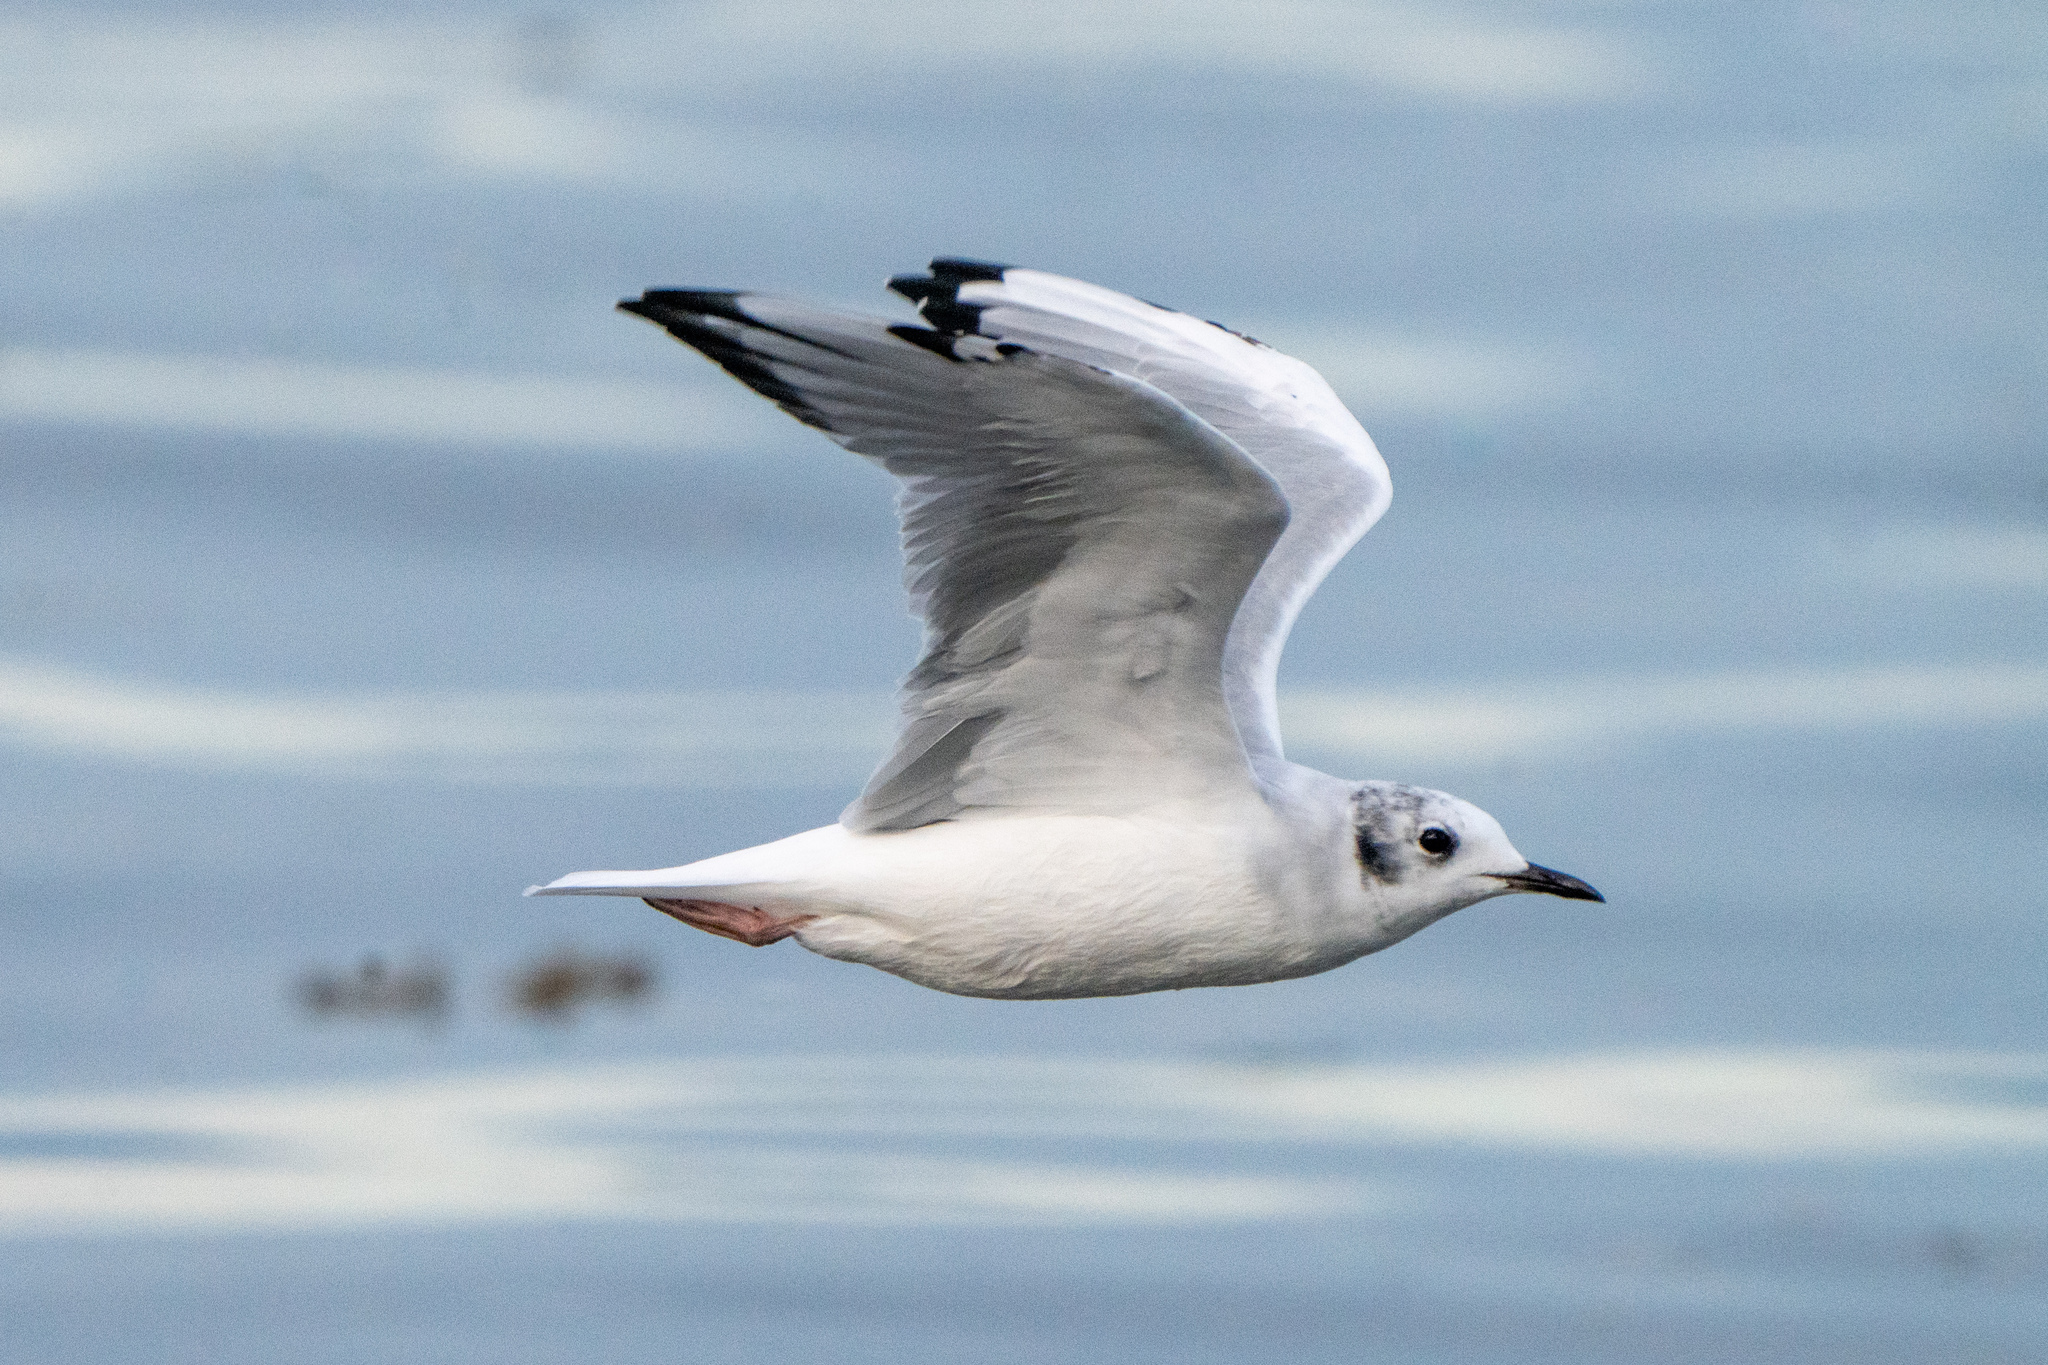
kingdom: Animalia
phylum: Chordata
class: Aves
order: Charadriiformes
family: Laridae
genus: Chroicocephalus
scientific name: Chroicocephalus philadelphia
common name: Bonaparte's gull
